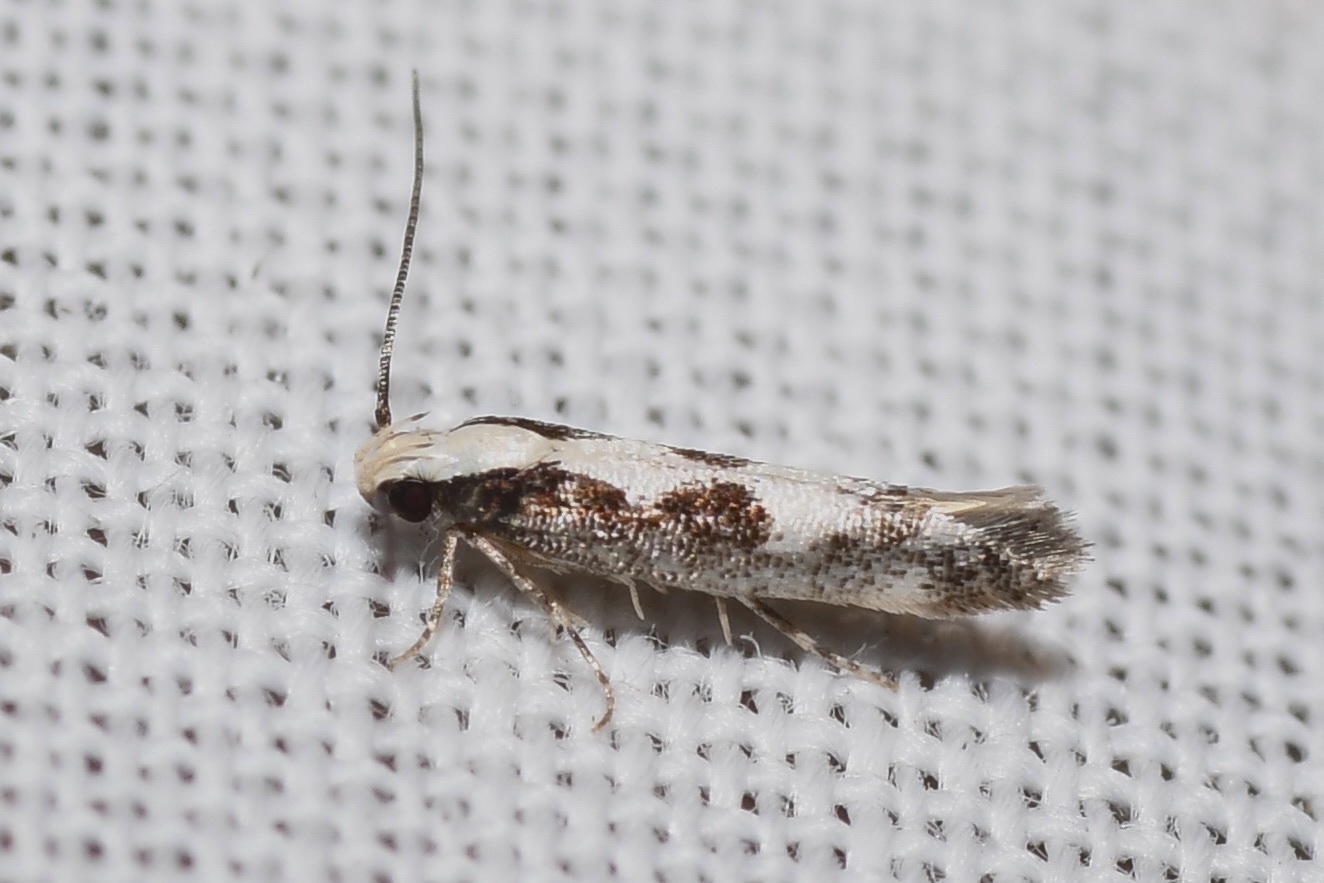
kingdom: Animalia
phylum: Arthropoda
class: Insecta
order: Lepidoptera
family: Gelechiidae
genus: Agnippe
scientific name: Agnippe prunifoliella
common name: Skunk twirler
